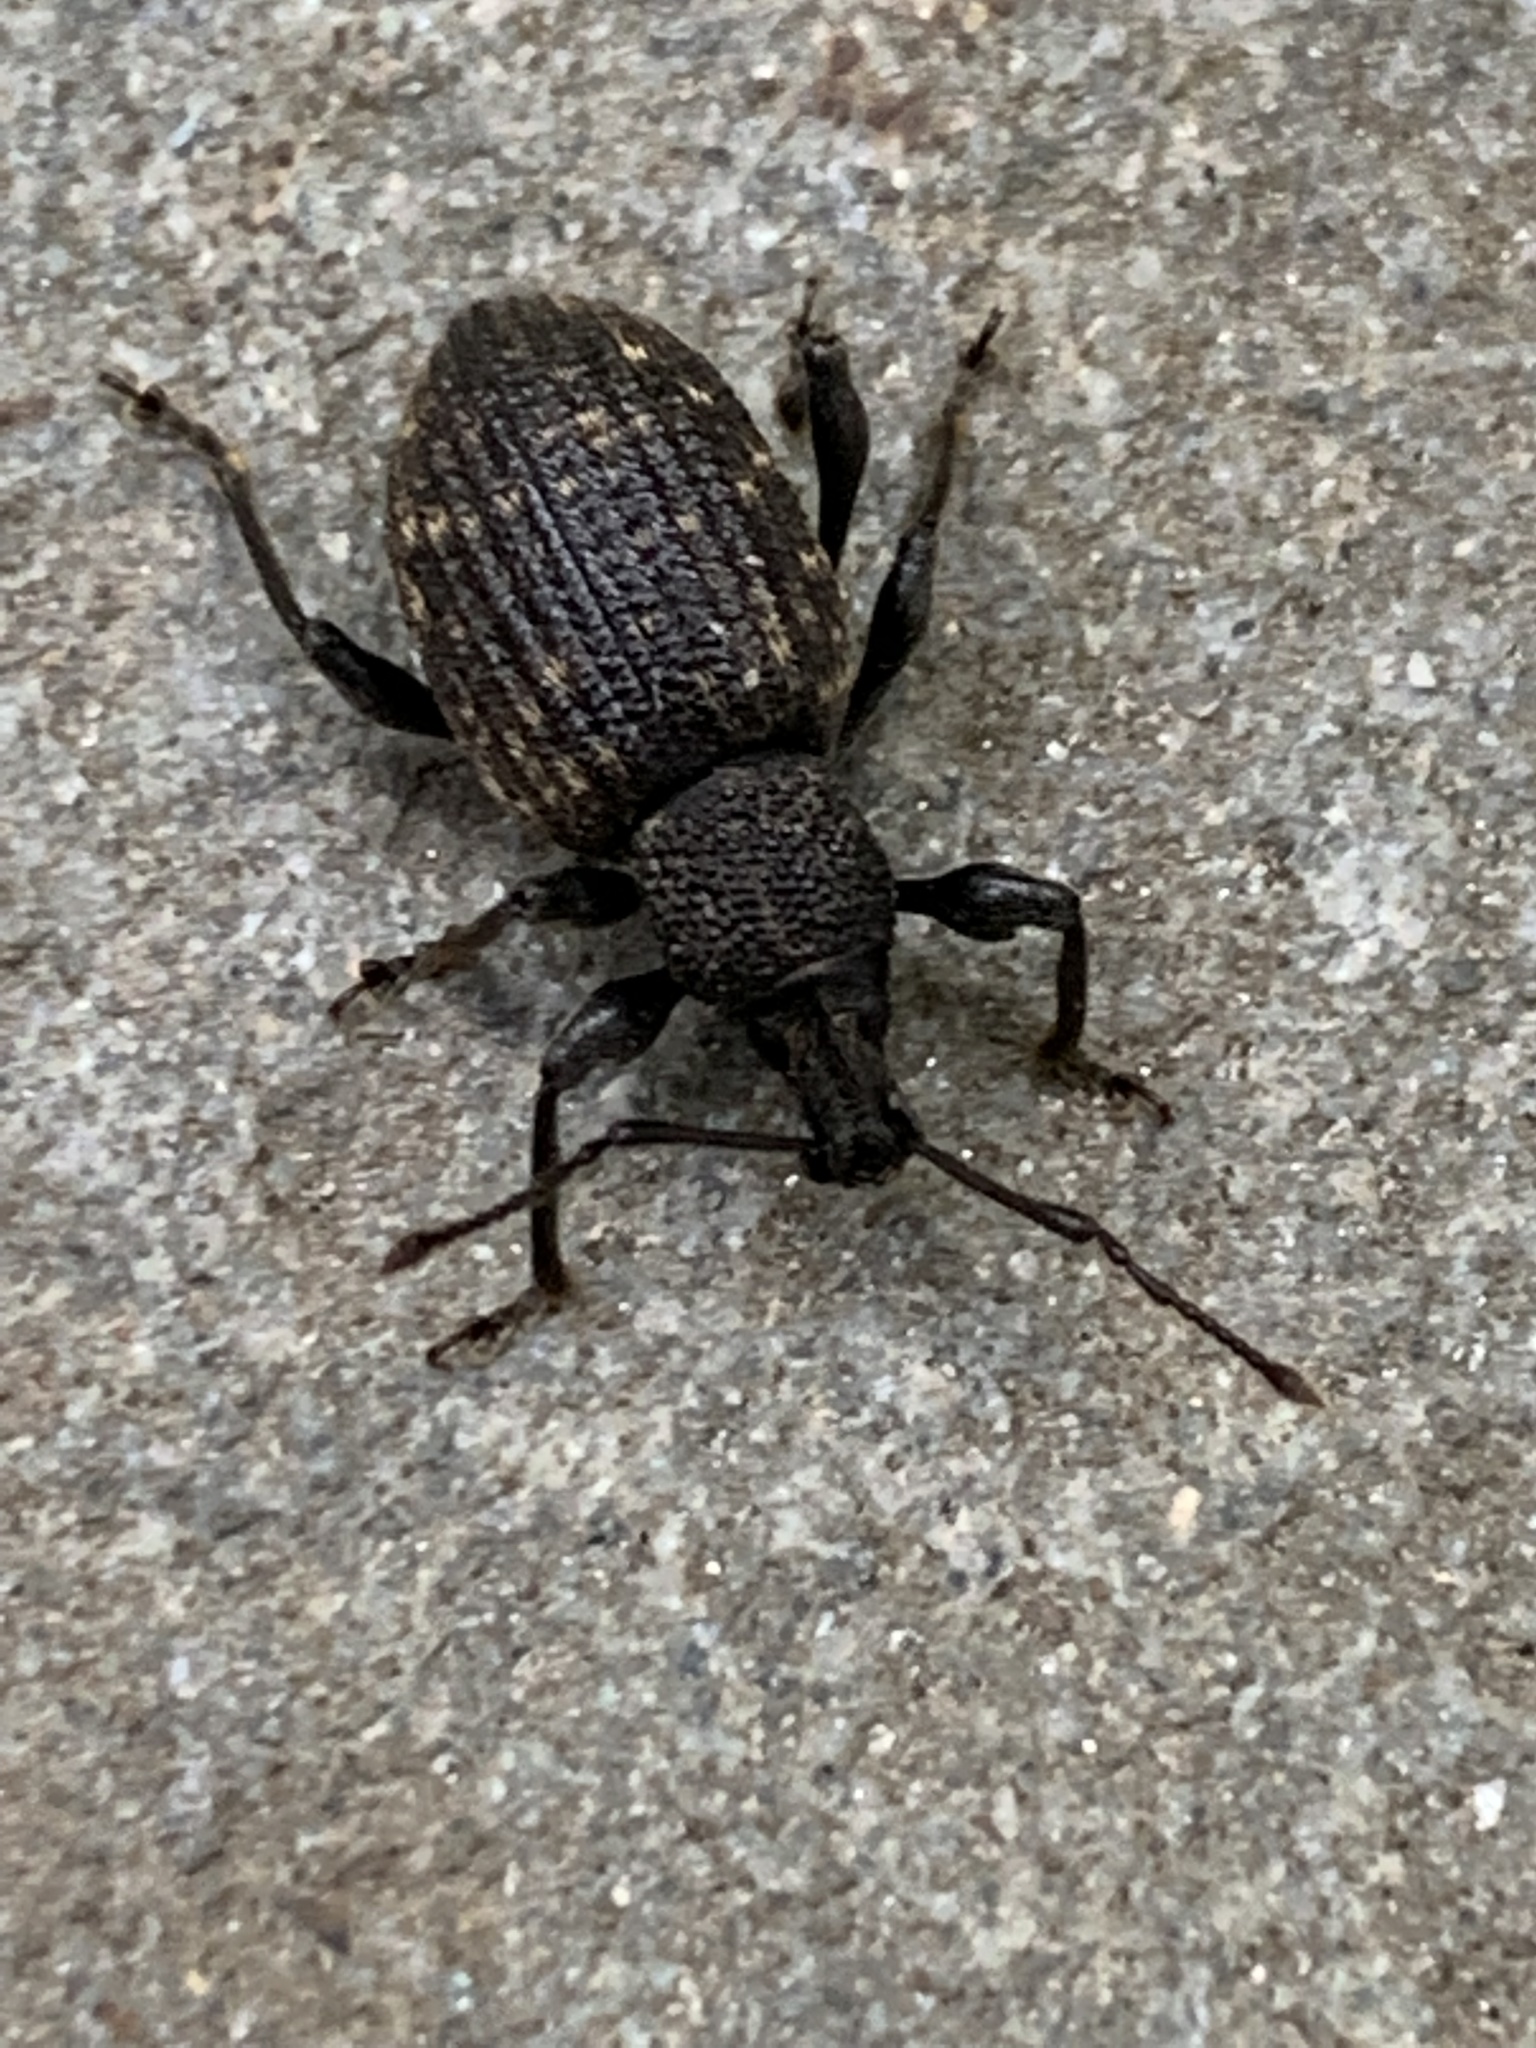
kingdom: Animalia
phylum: Arthropoda
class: Insecta
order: Coleoptera
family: Curculionidae
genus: Otiorhynchus
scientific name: Otiorhynchus sulcatus
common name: Black vine weevil
